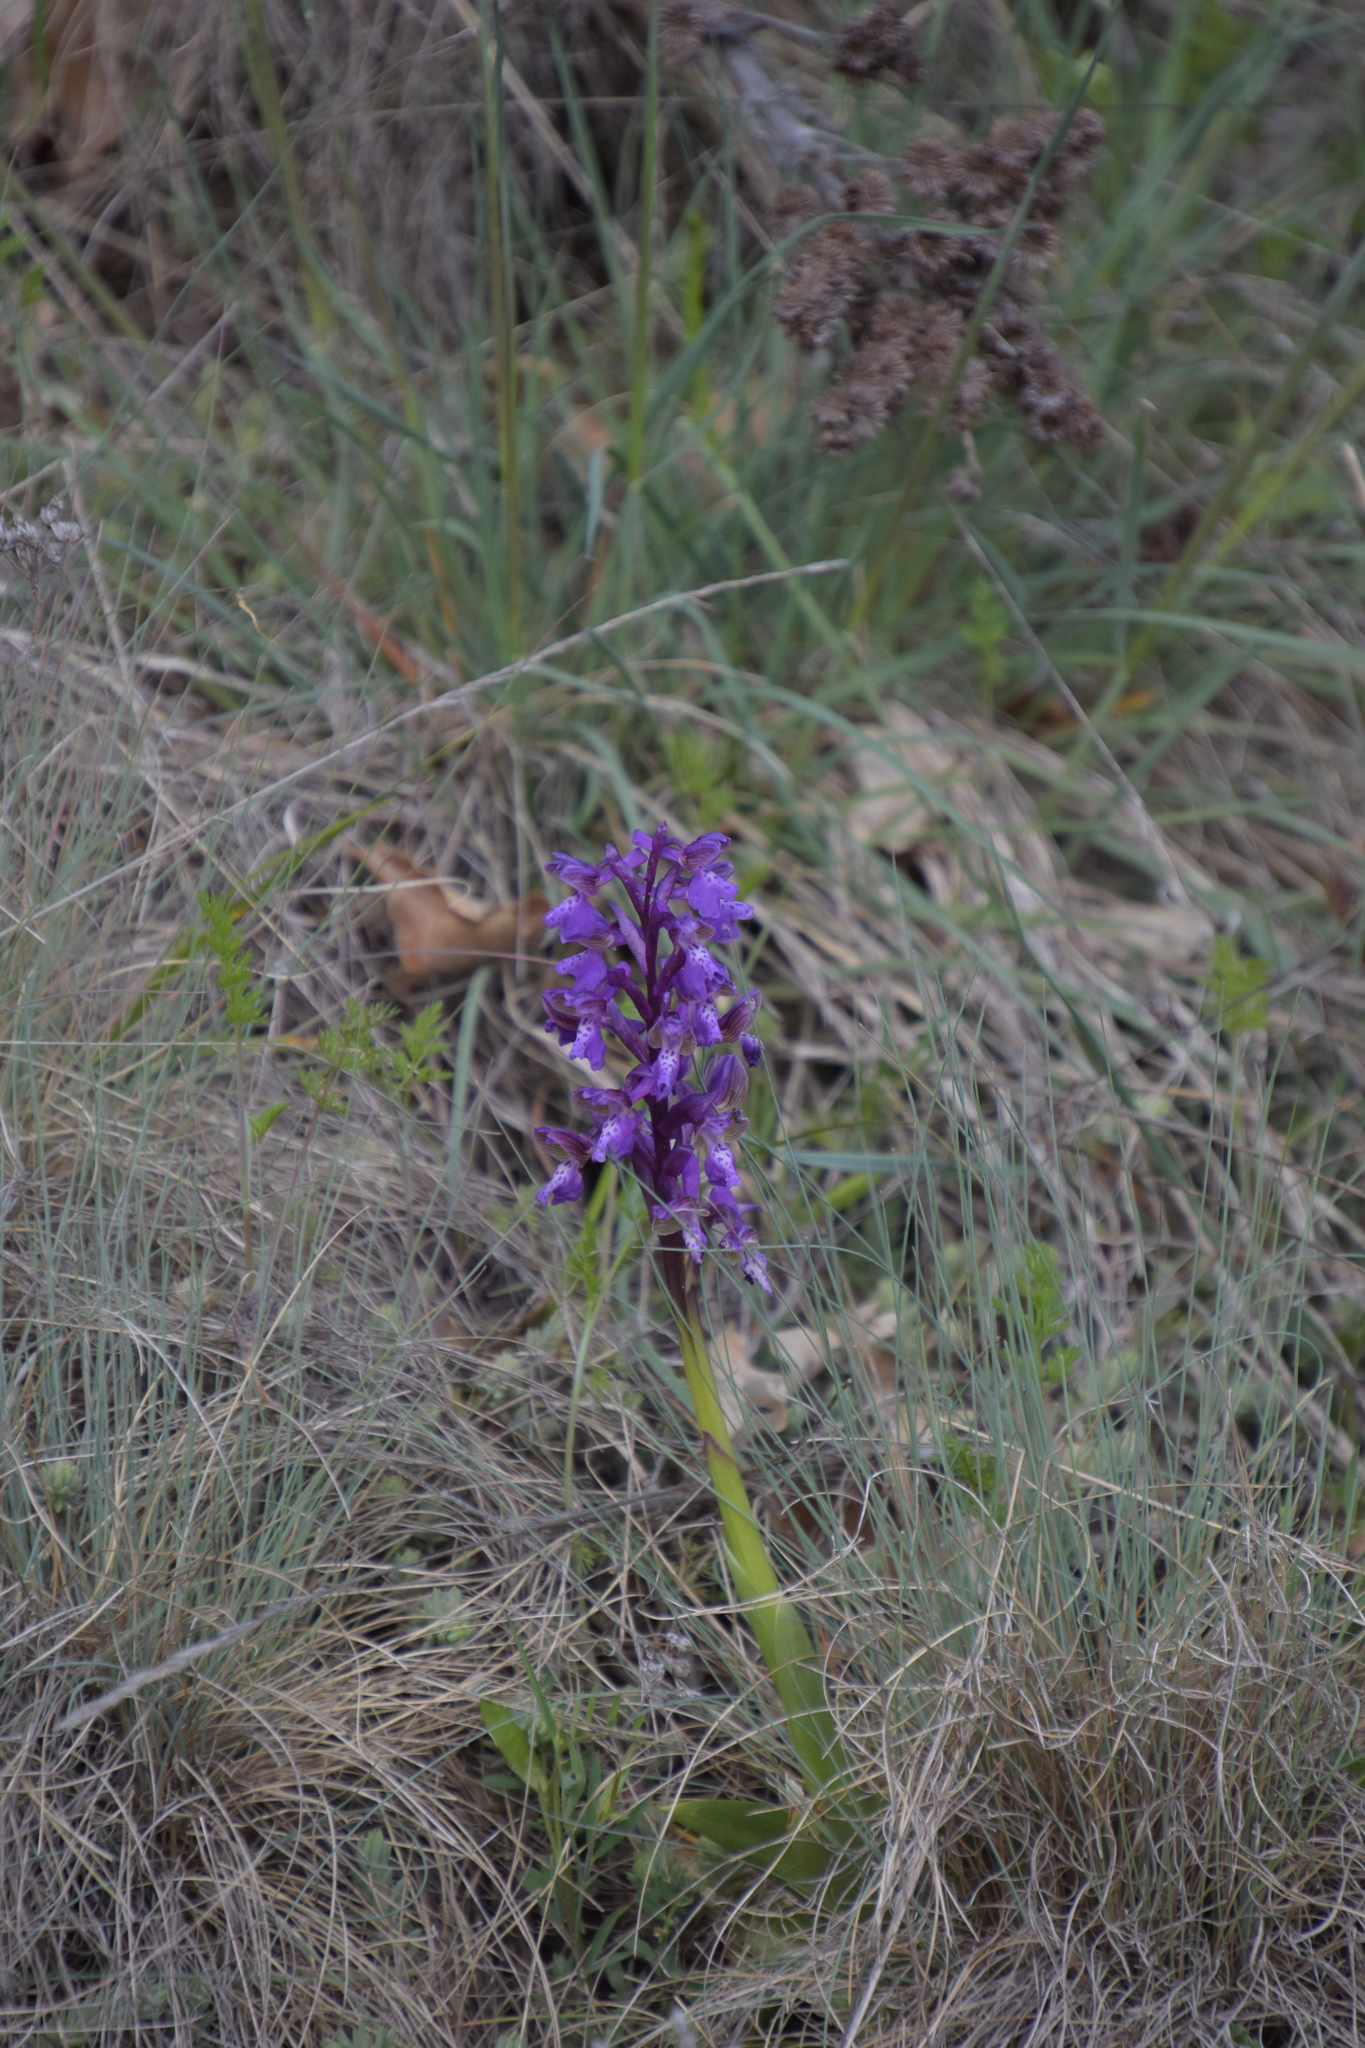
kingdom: Plantae
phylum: Tracheophyta
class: Liliopsida
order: Asparagales
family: Orchidaceae
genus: Anacamptis
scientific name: Anacamptis morio
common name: Green-winged orchid
